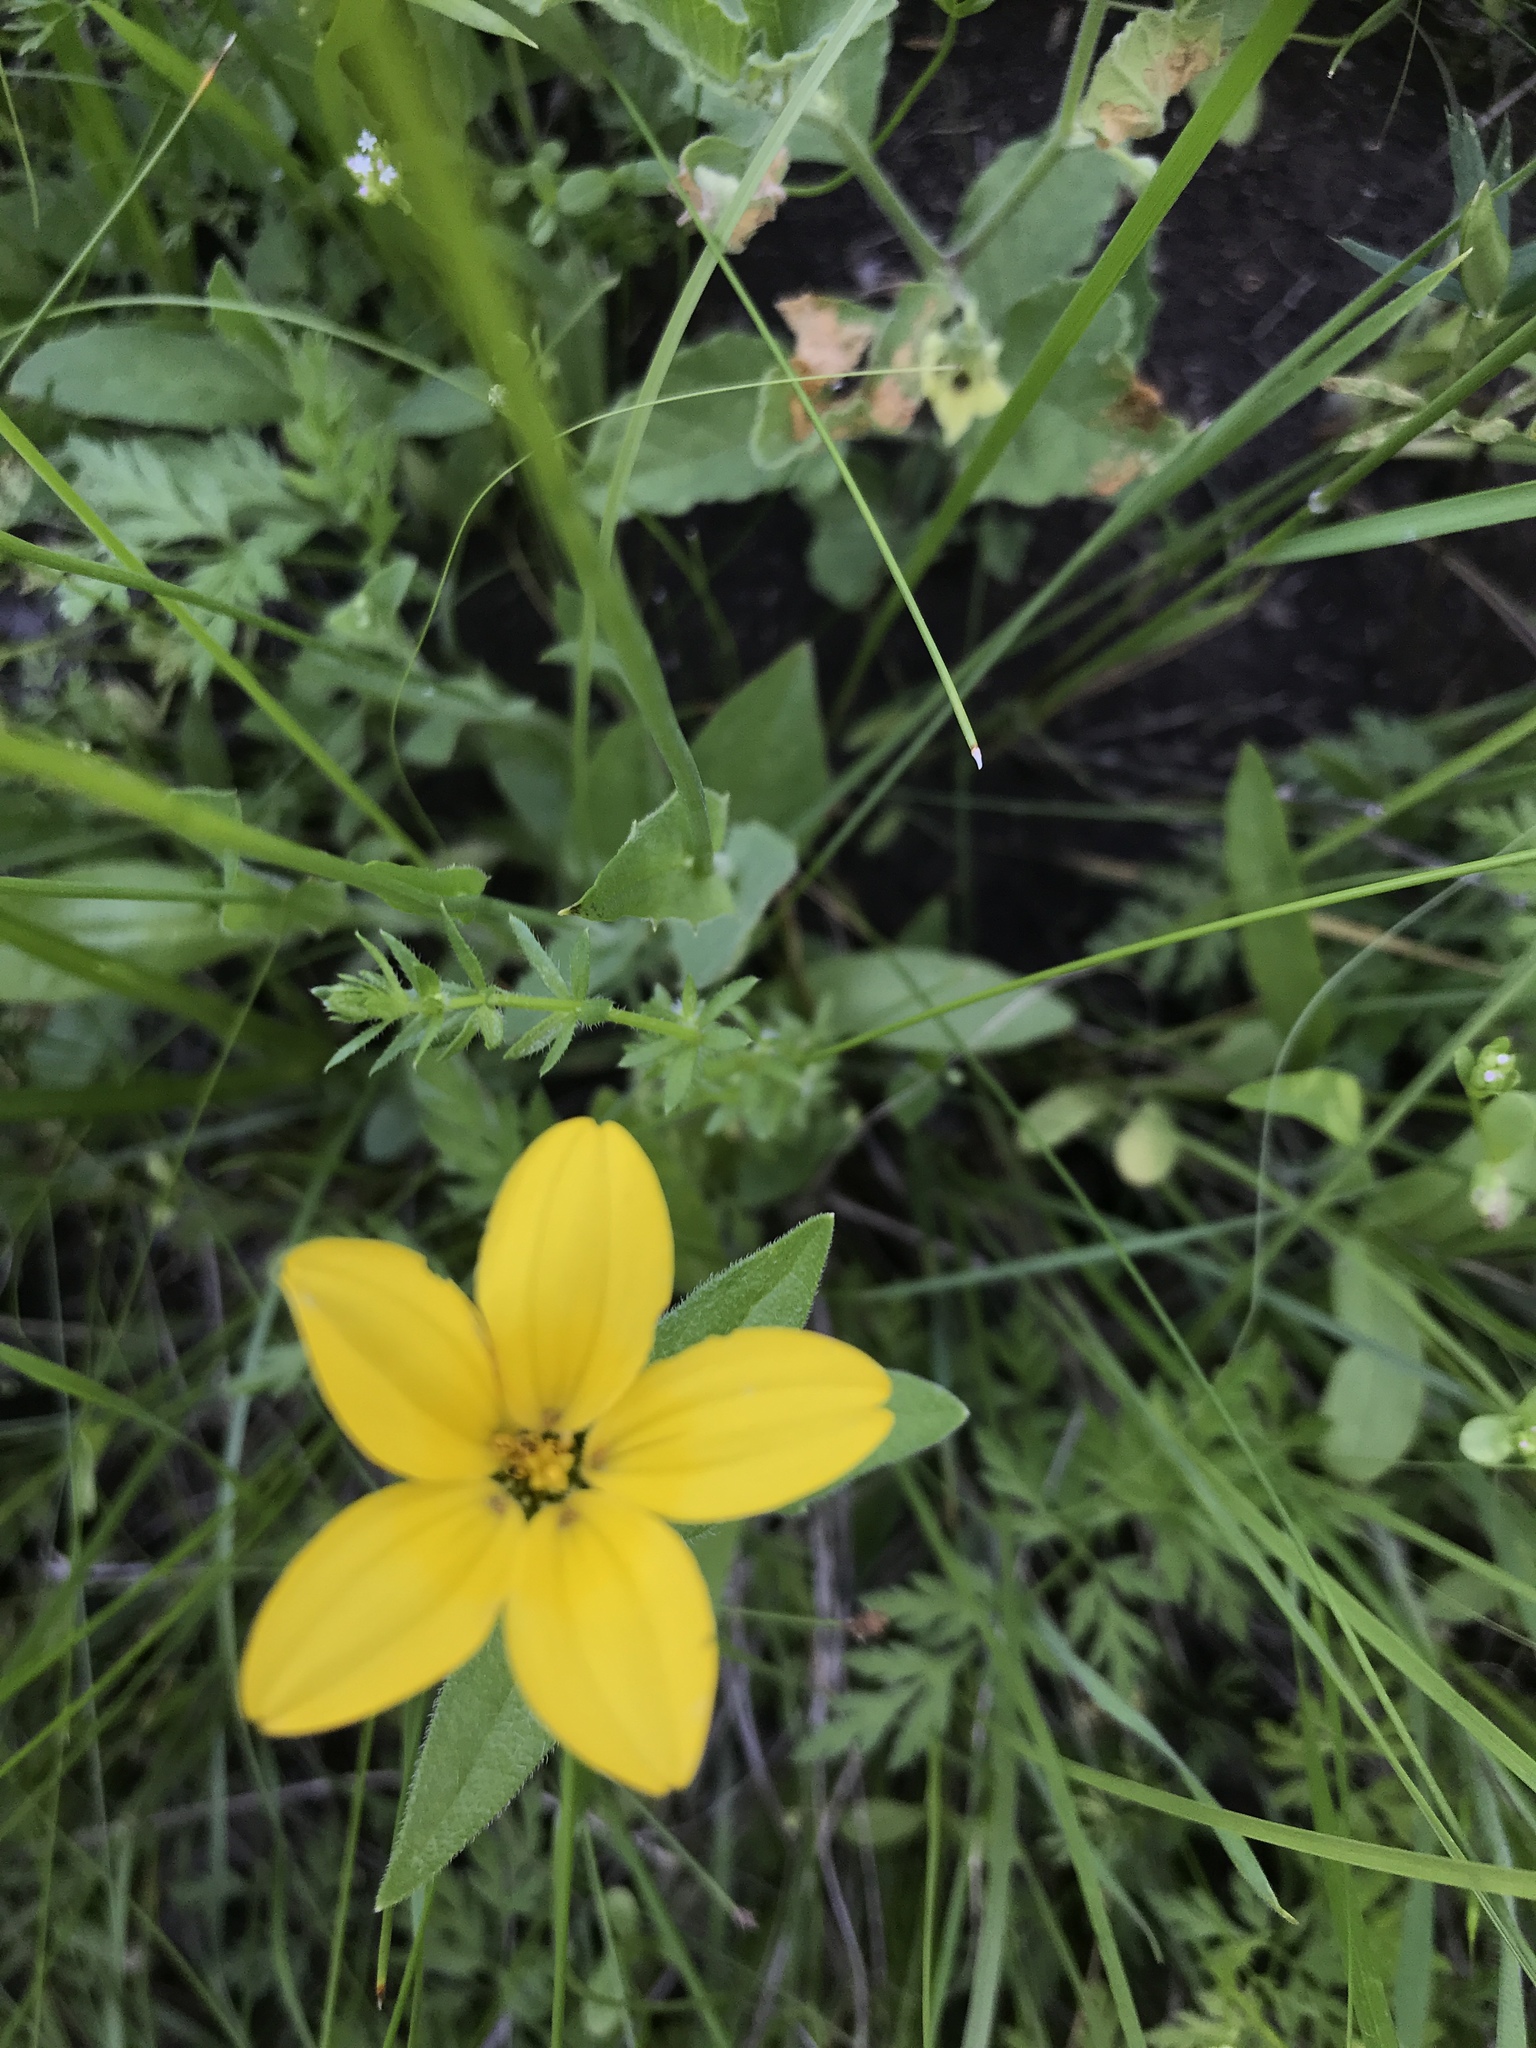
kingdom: Plantae
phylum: Tracheophyta
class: Magnoliopsida
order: Asterales
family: Asteraceae
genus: Lindheimera
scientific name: Lindheimera texana
